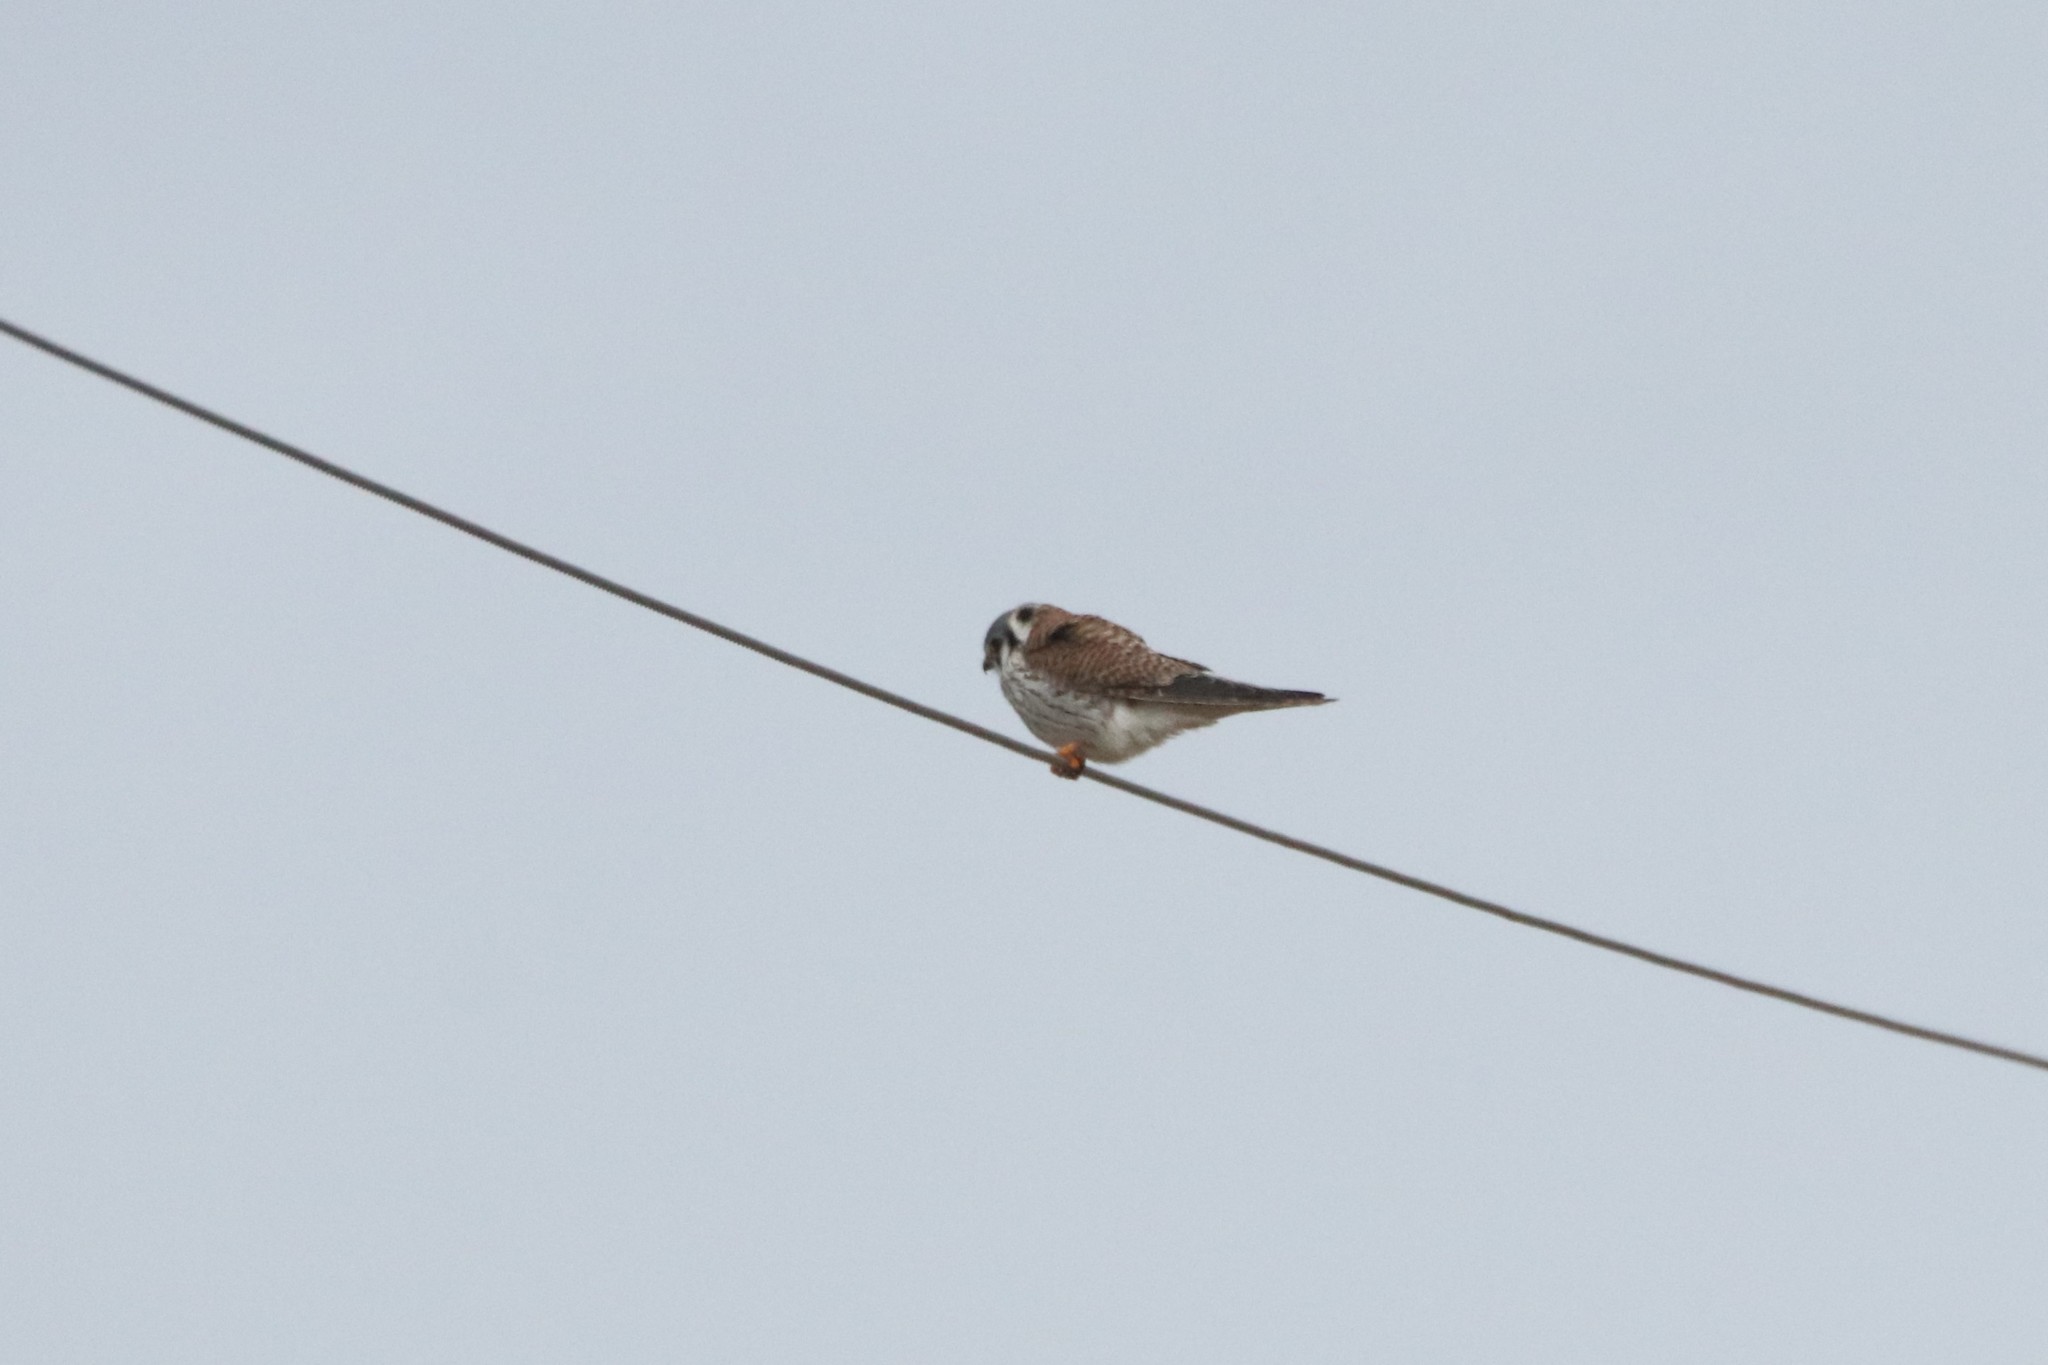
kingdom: Animalia
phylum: Chordata
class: Aves
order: Falconiformes
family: Falconidae
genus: Falco
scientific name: Falco sparverius
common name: American kestrel
